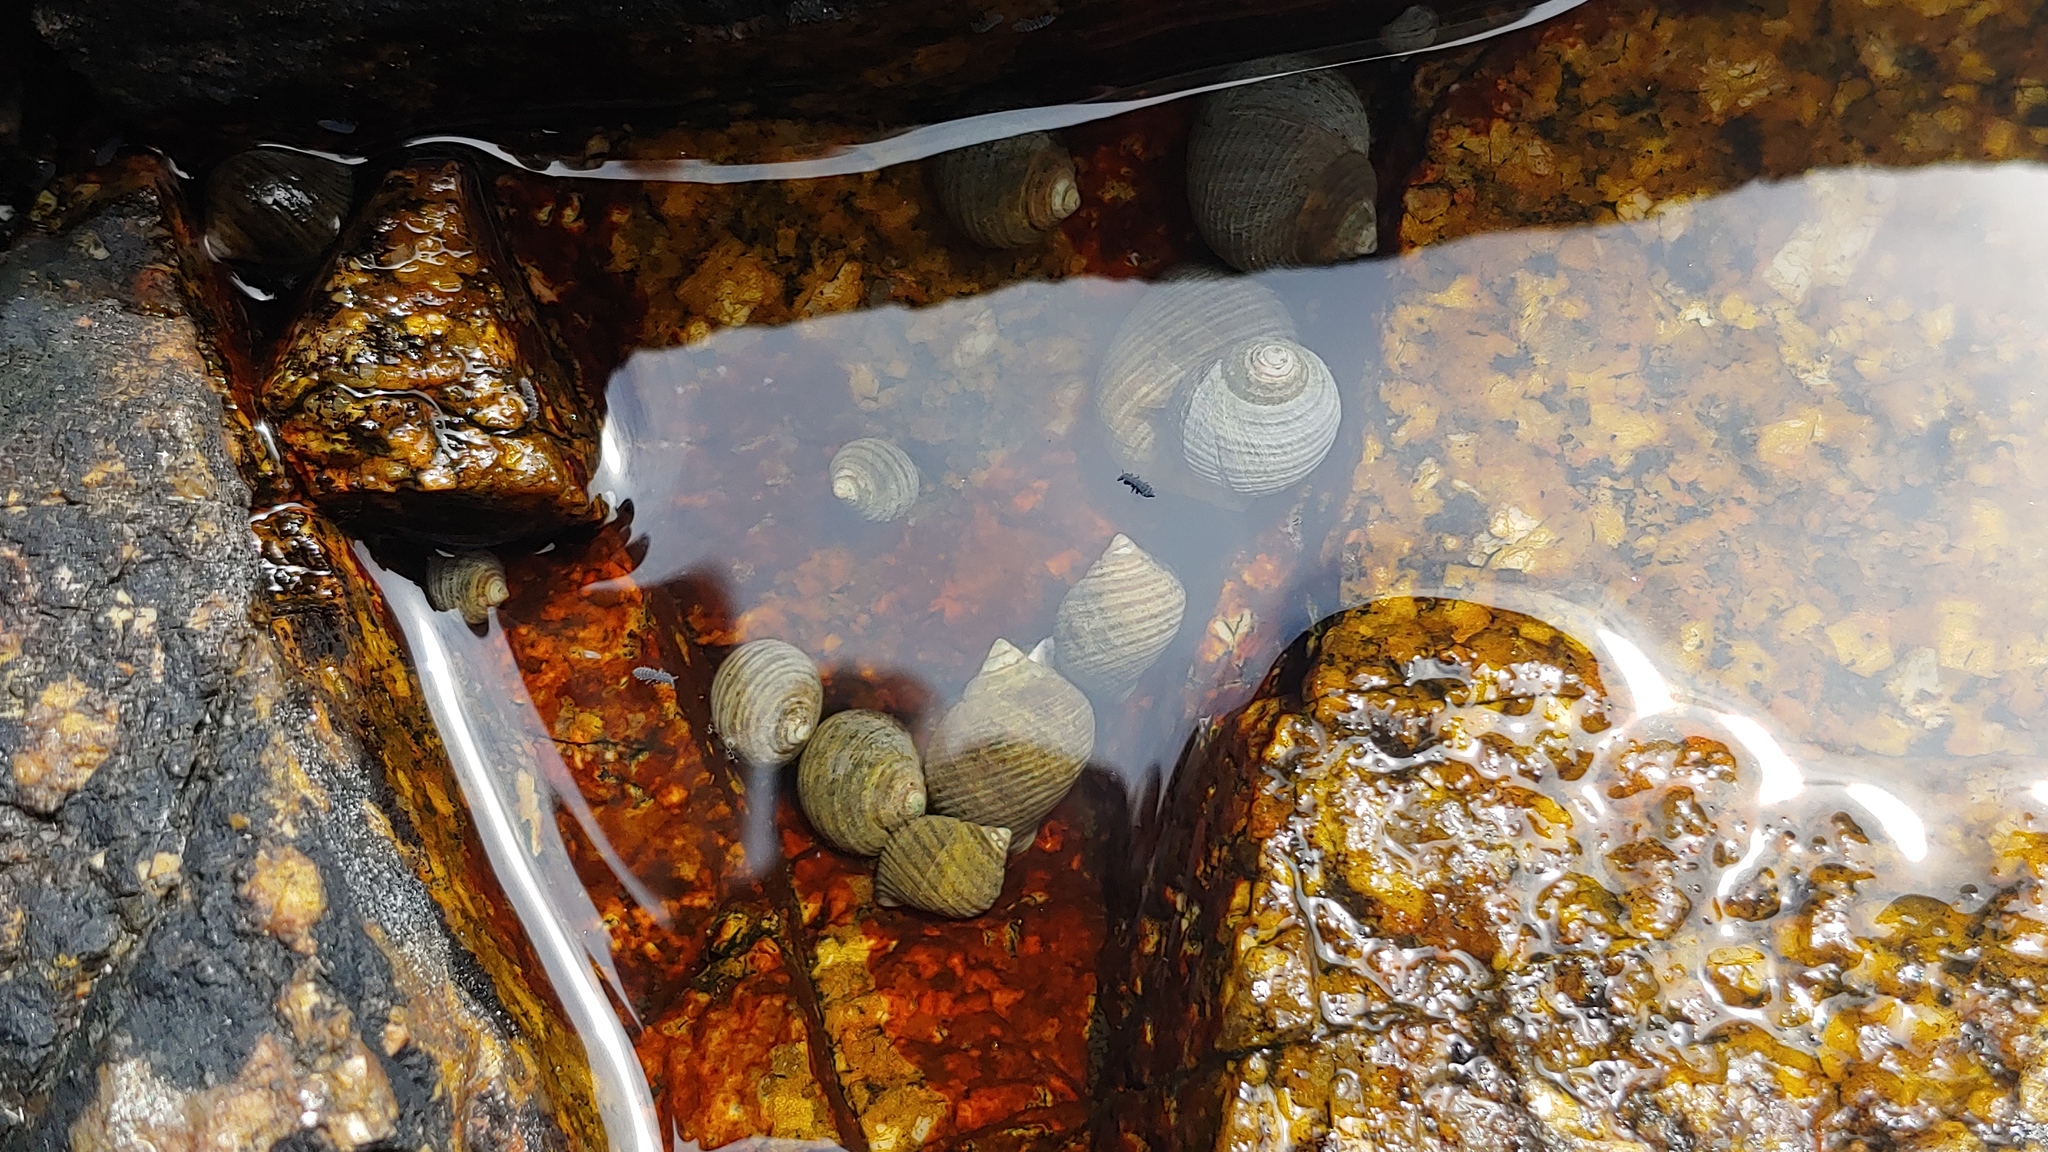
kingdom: Animalia
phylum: Mollusca
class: Gastropoda
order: Littorinimorpha
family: Littorinidae
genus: Littorina
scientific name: Littorina littorea
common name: Common periwinkle
